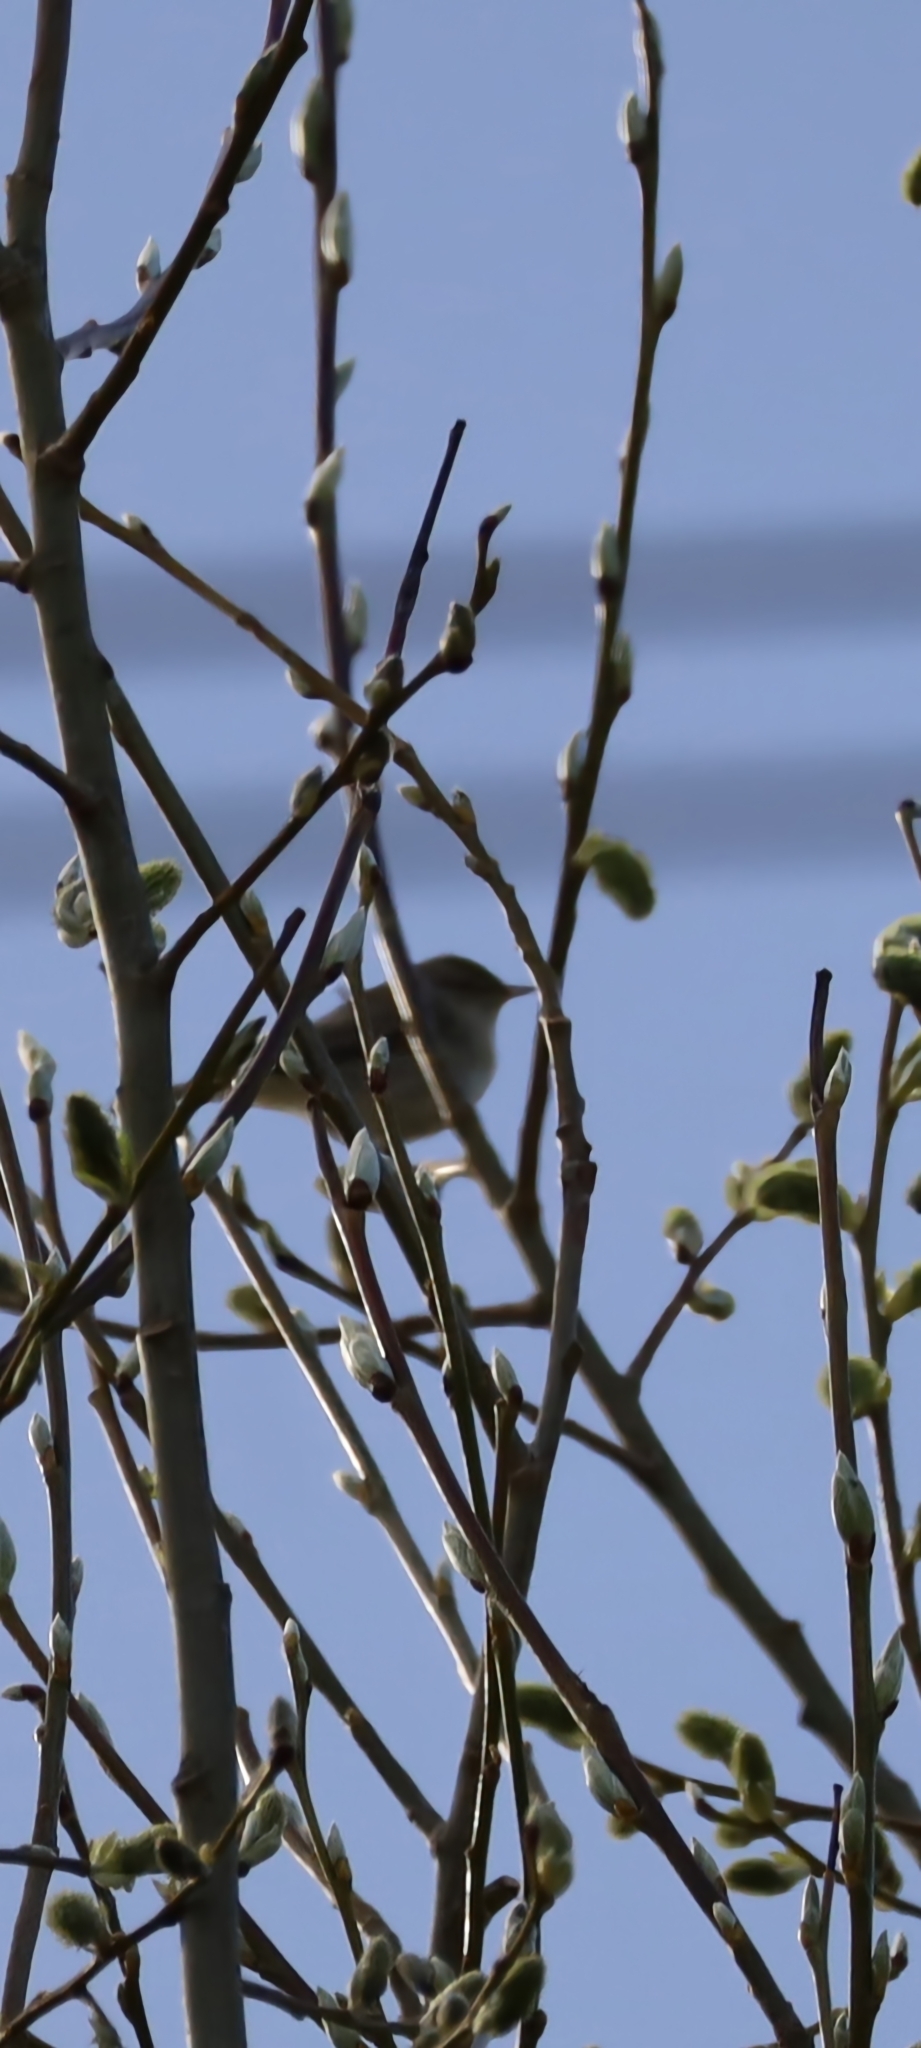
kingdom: Animalia
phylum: Chordata
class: Aves
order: Passeriformes
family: Phylloscopidae
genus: Phylloscopus
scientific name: Phylloscopus collybita
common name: Common chiffchaff
